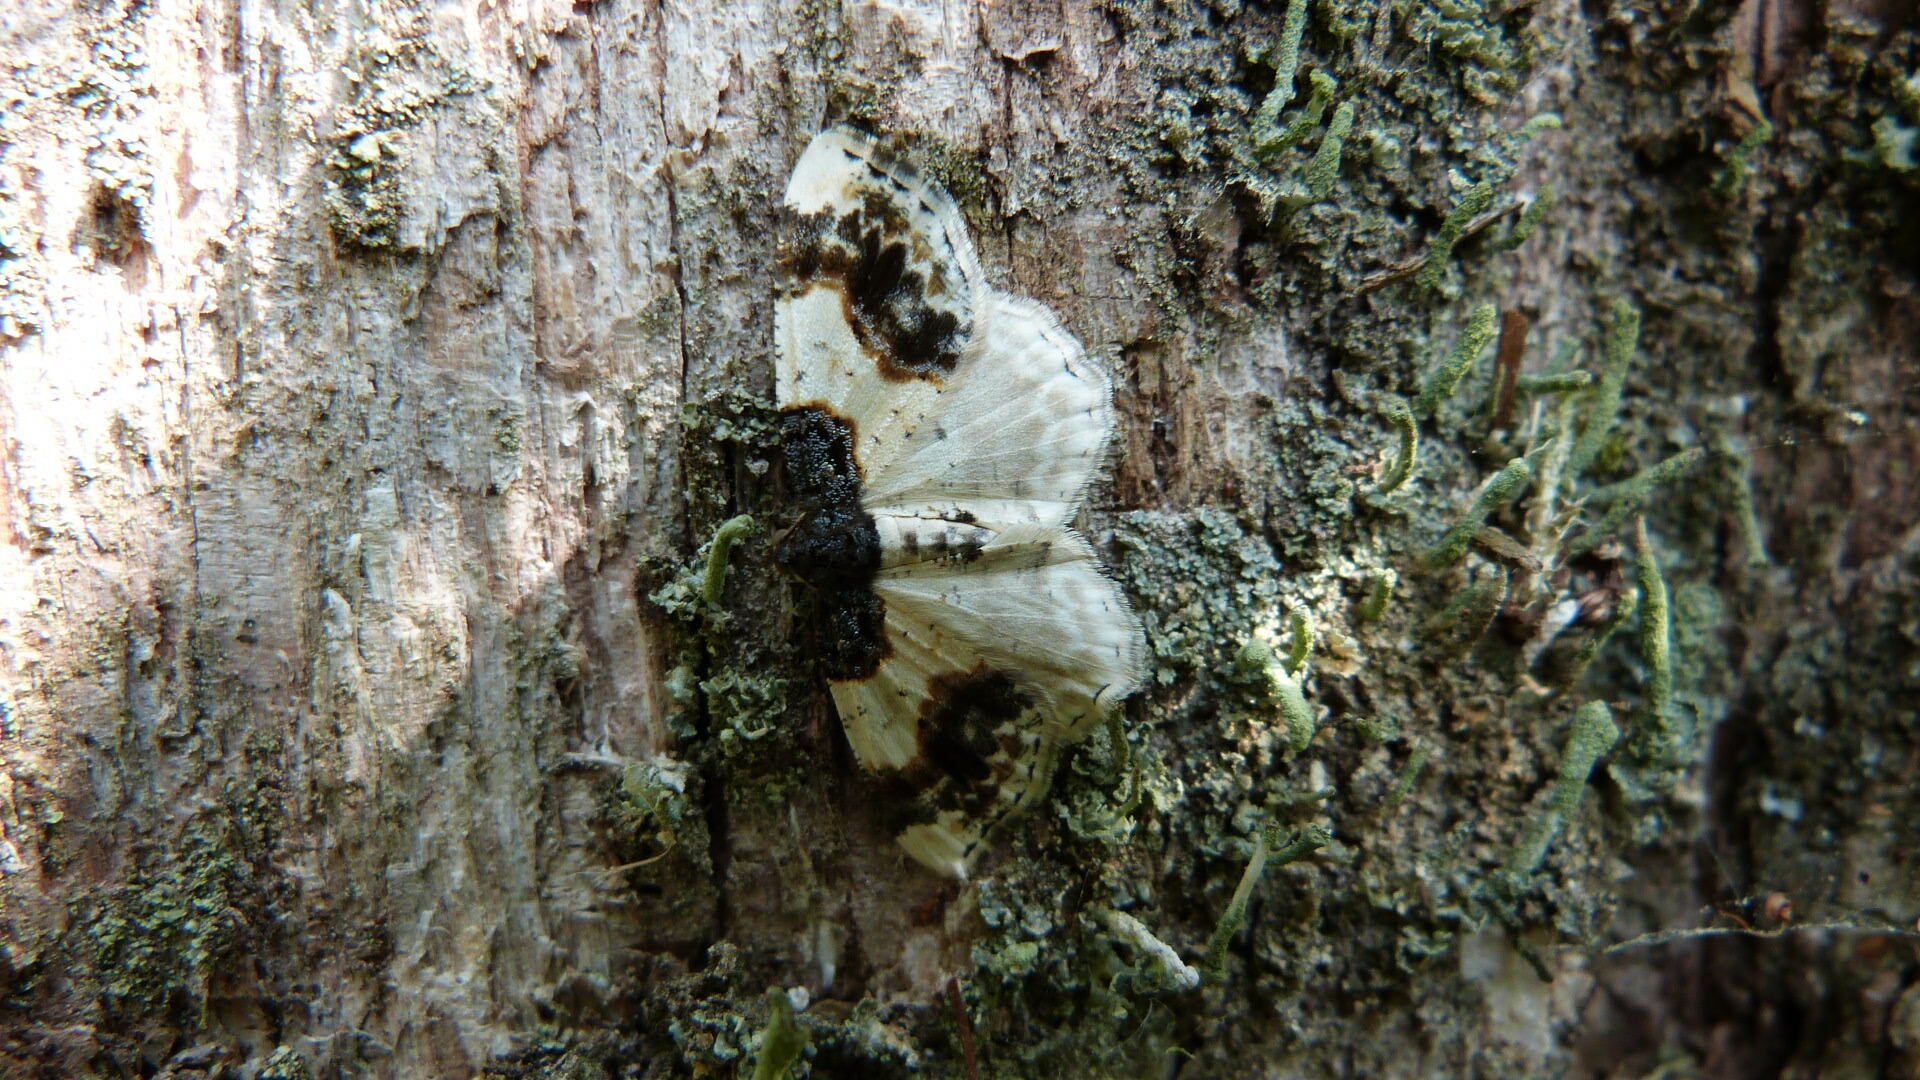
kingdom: Animalia
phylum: Arthropoda
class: Insecta
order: Lepidoptera
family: Geometridae
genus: Ligdia
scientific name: Ligdia adustata
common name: Scorched carpet
